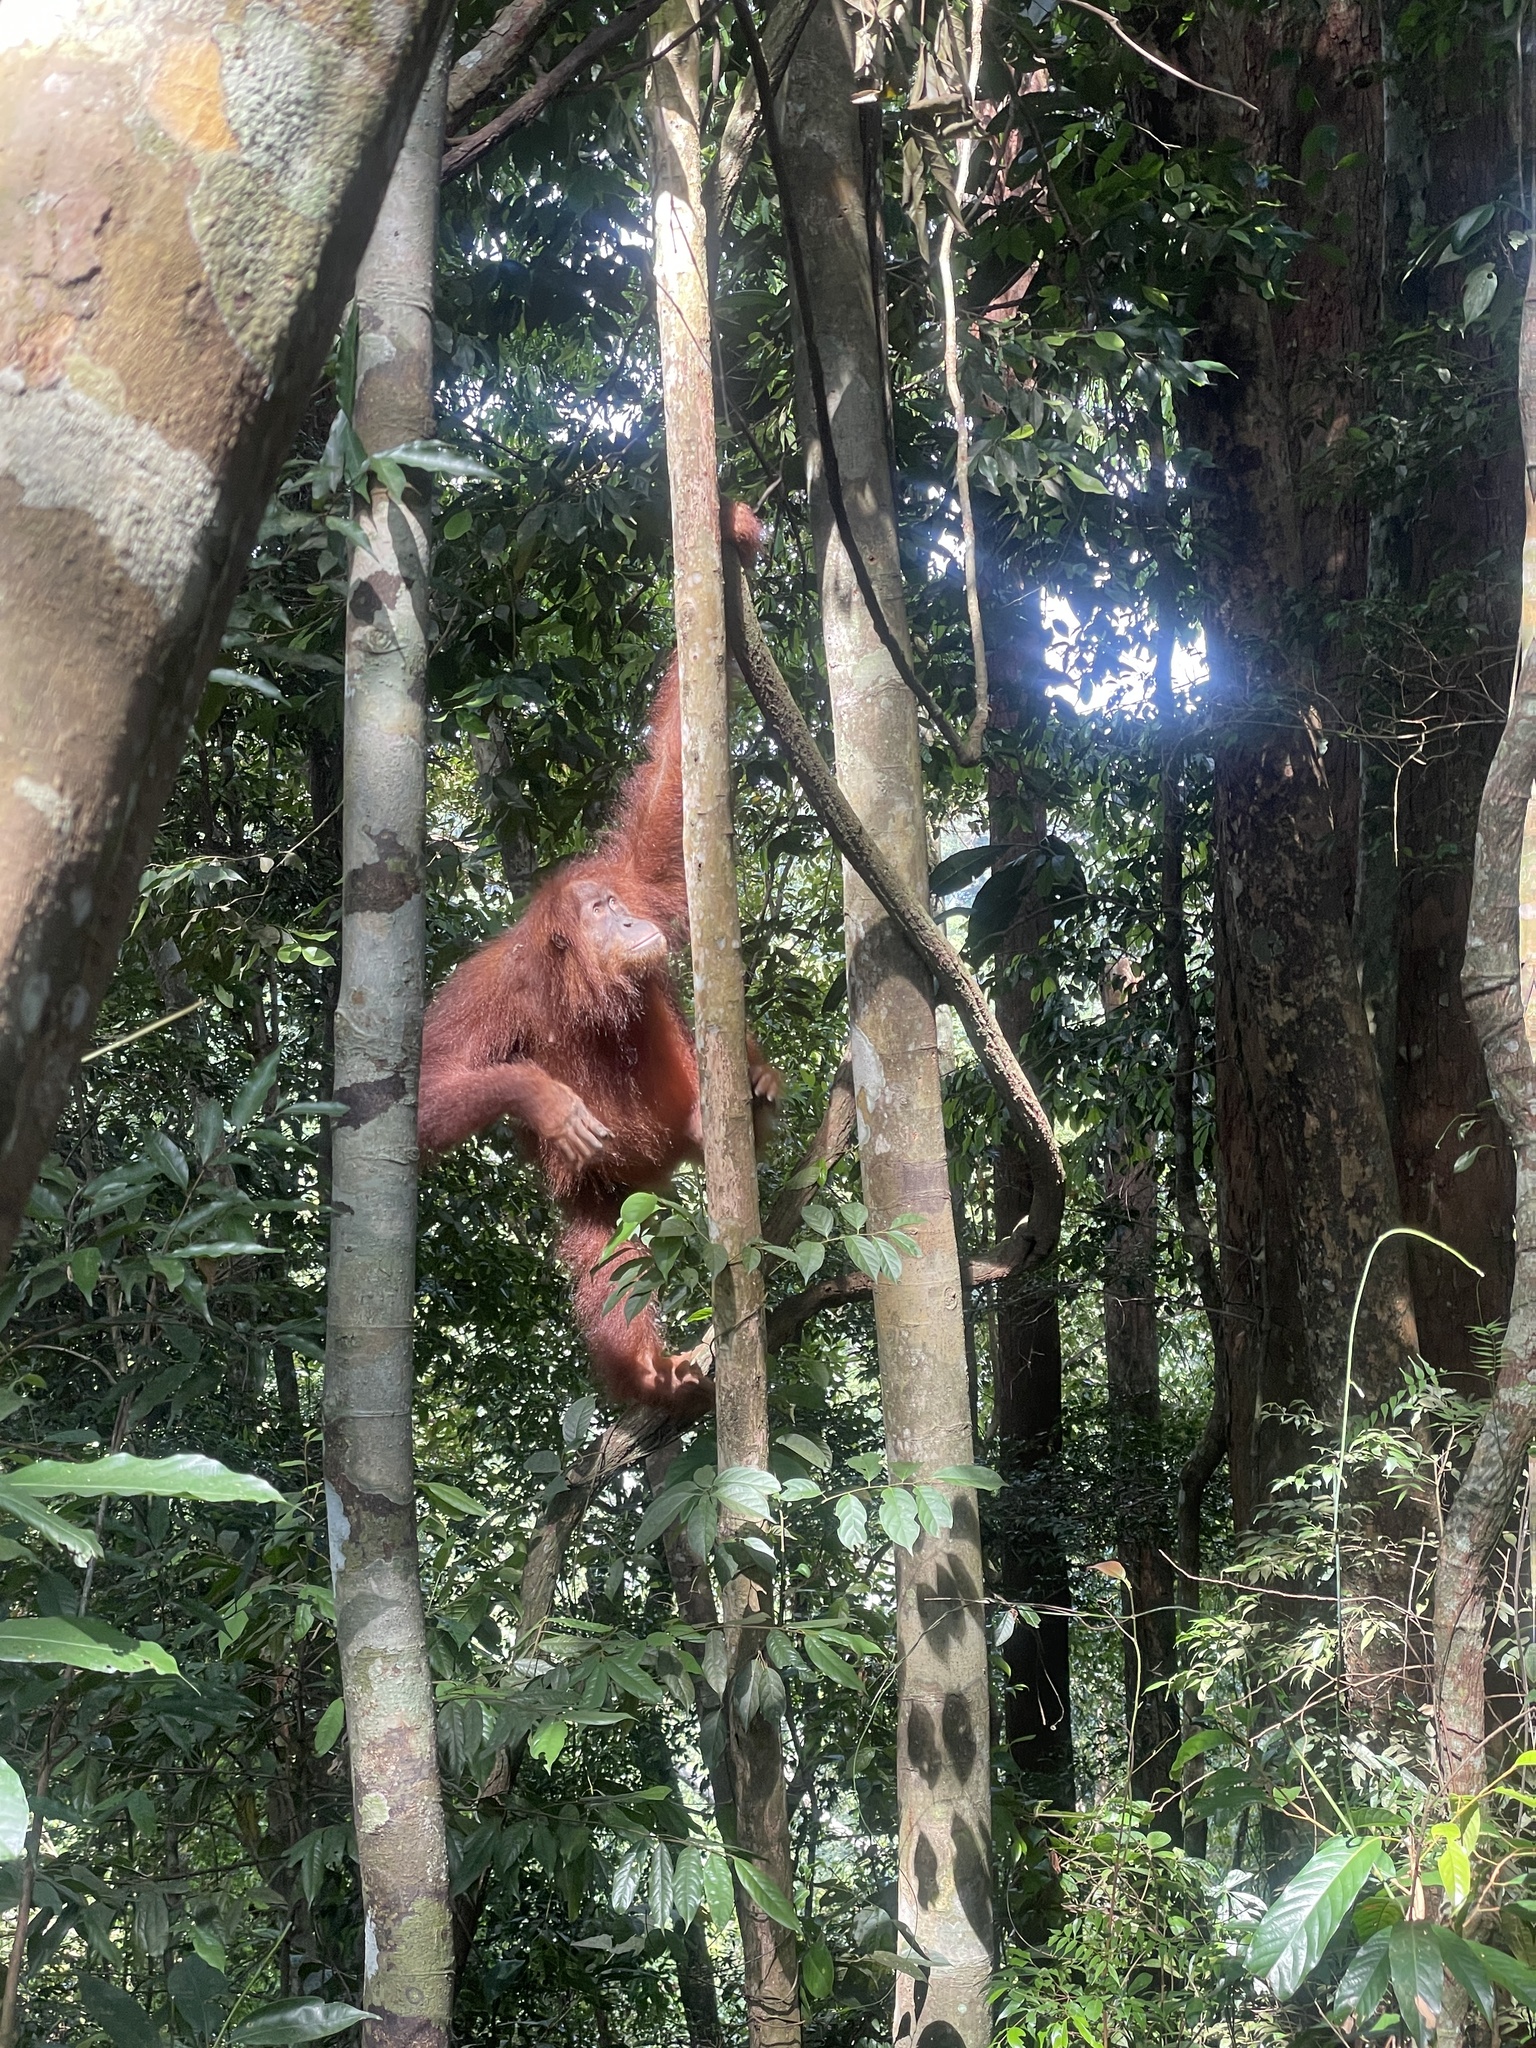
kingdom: Animalia
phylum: Chordata
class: Mammalia
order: Primates
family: Hominidae
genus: Pongo
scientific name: Pongo abelii
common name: Sumatran orangutan
